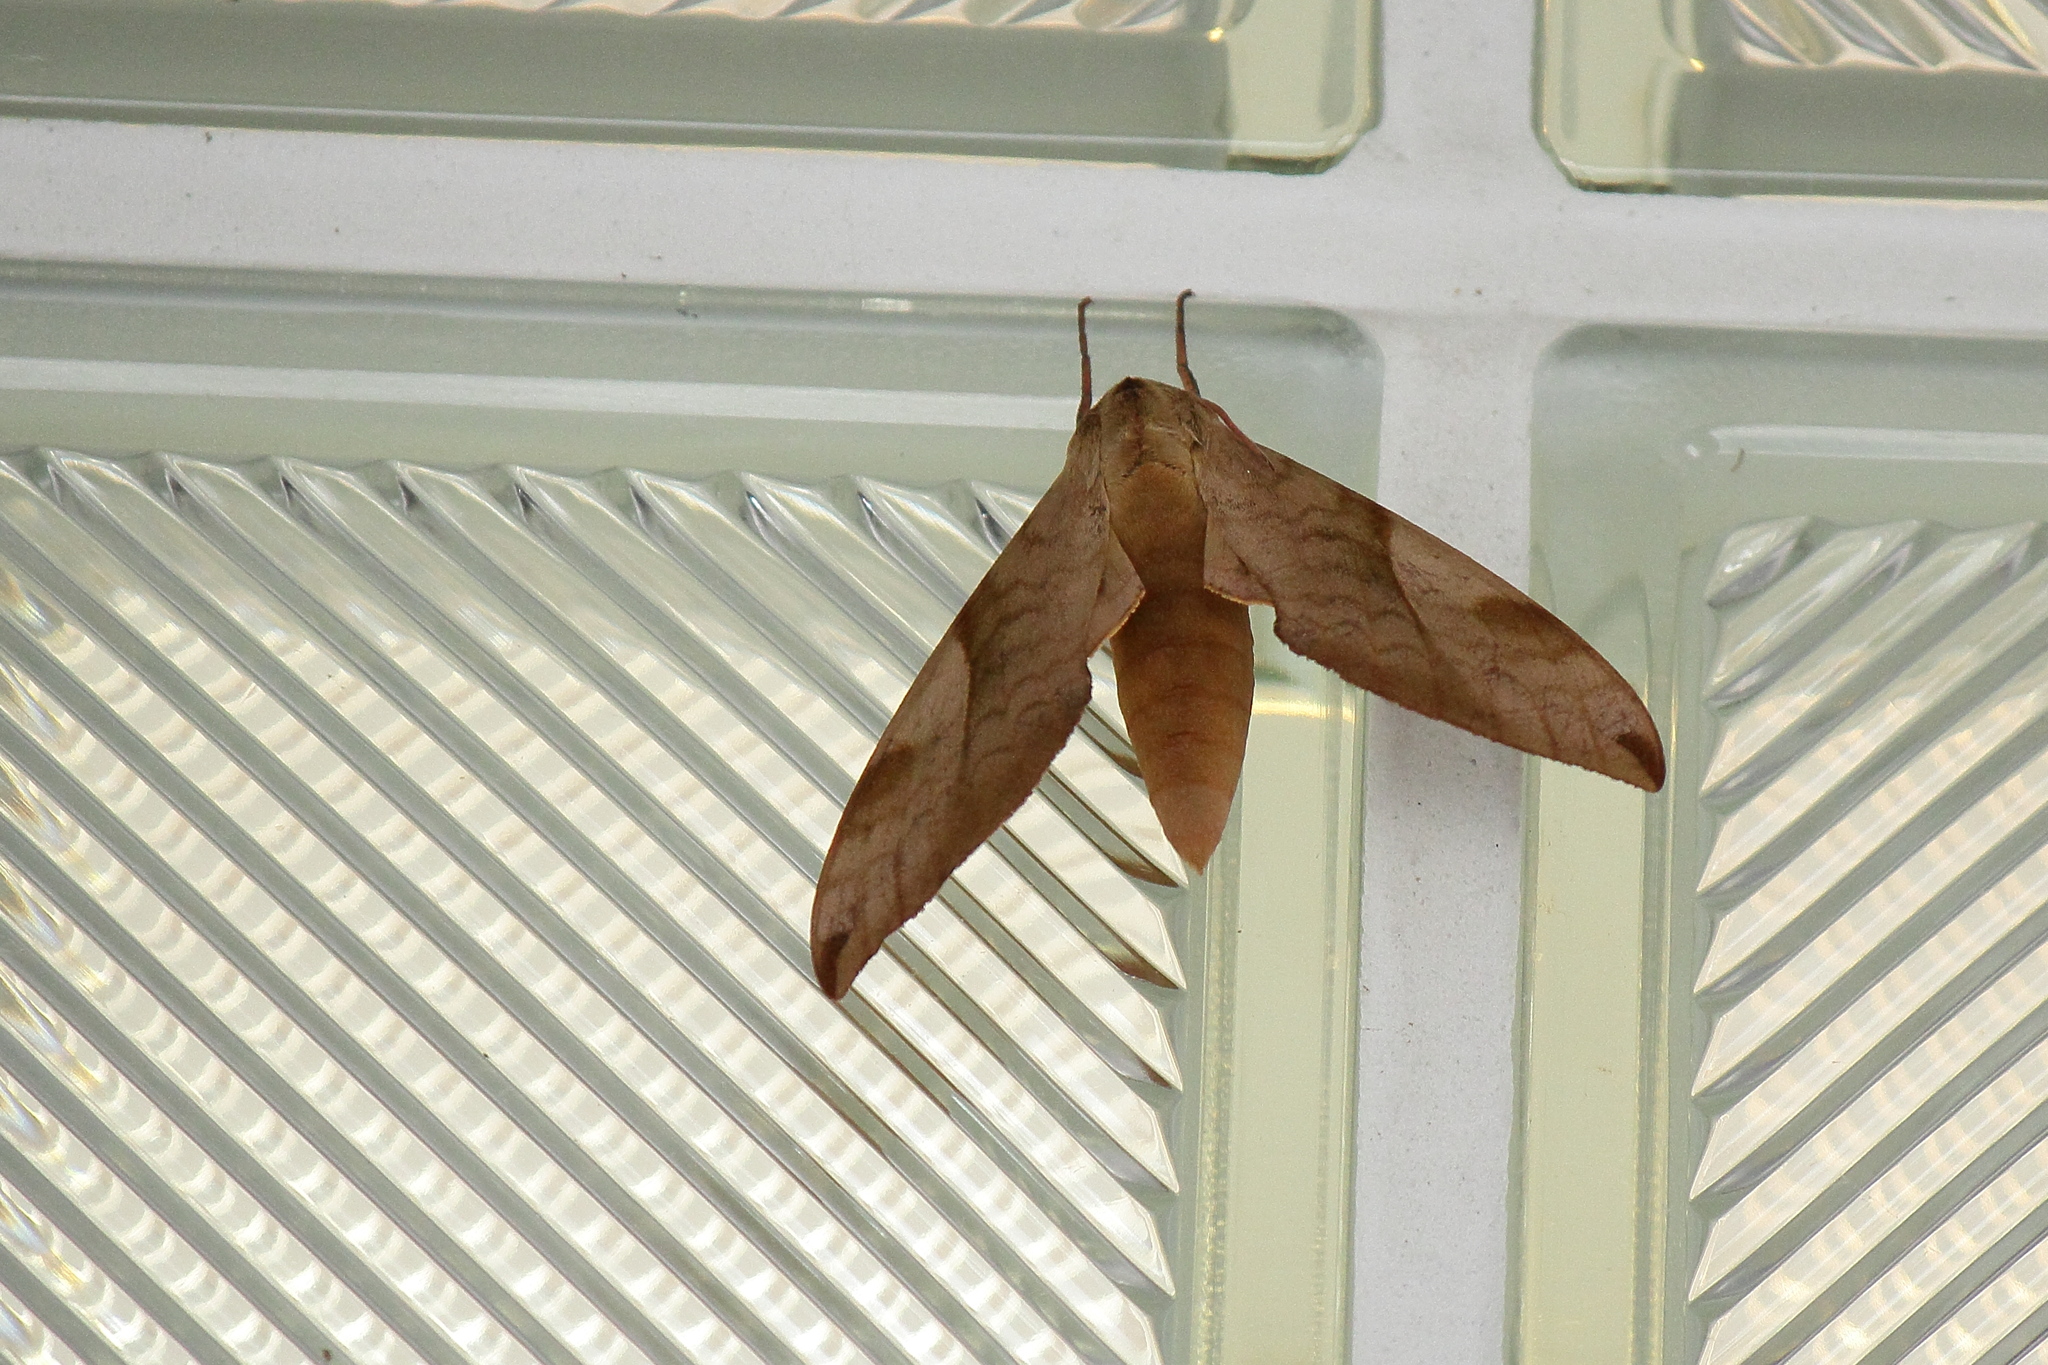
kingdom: Animalia
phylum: Arthropoda
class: Insecta
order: Lepidoptera
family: Sphingidae
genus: Clanis
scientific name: Clanis bilineata
